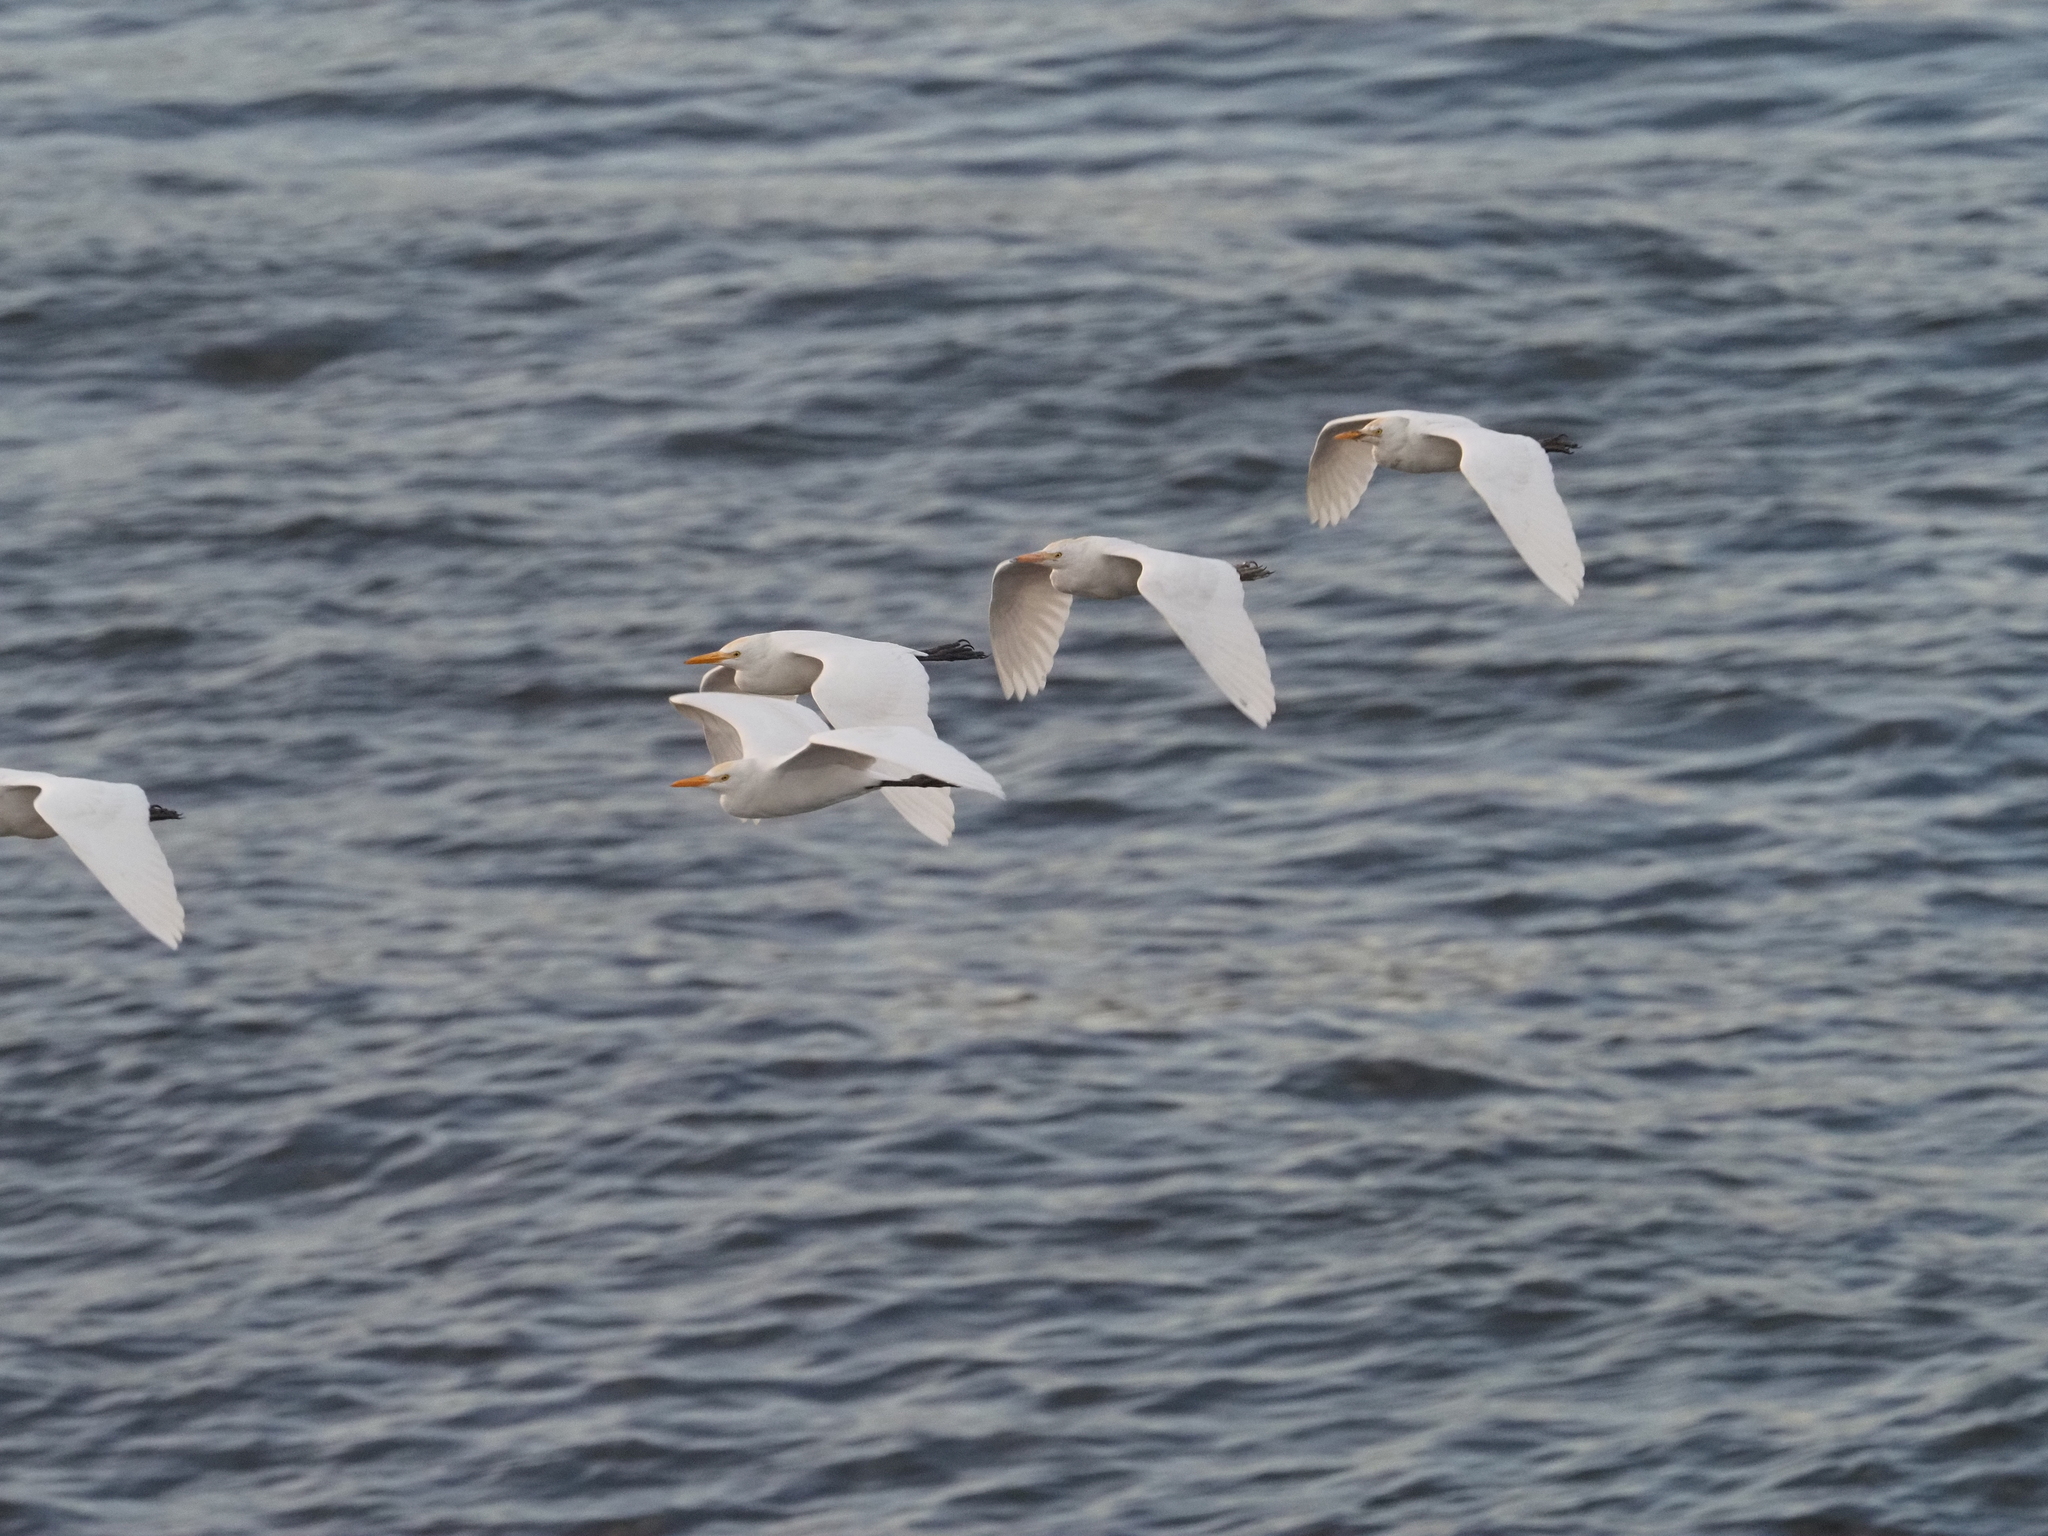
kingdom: Animalia
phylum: Chordata
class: Aves
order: Pelecaniformes
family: Ardeidae
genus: Bubulcus
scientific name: Bubulcus ibis
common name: Cattle egret
